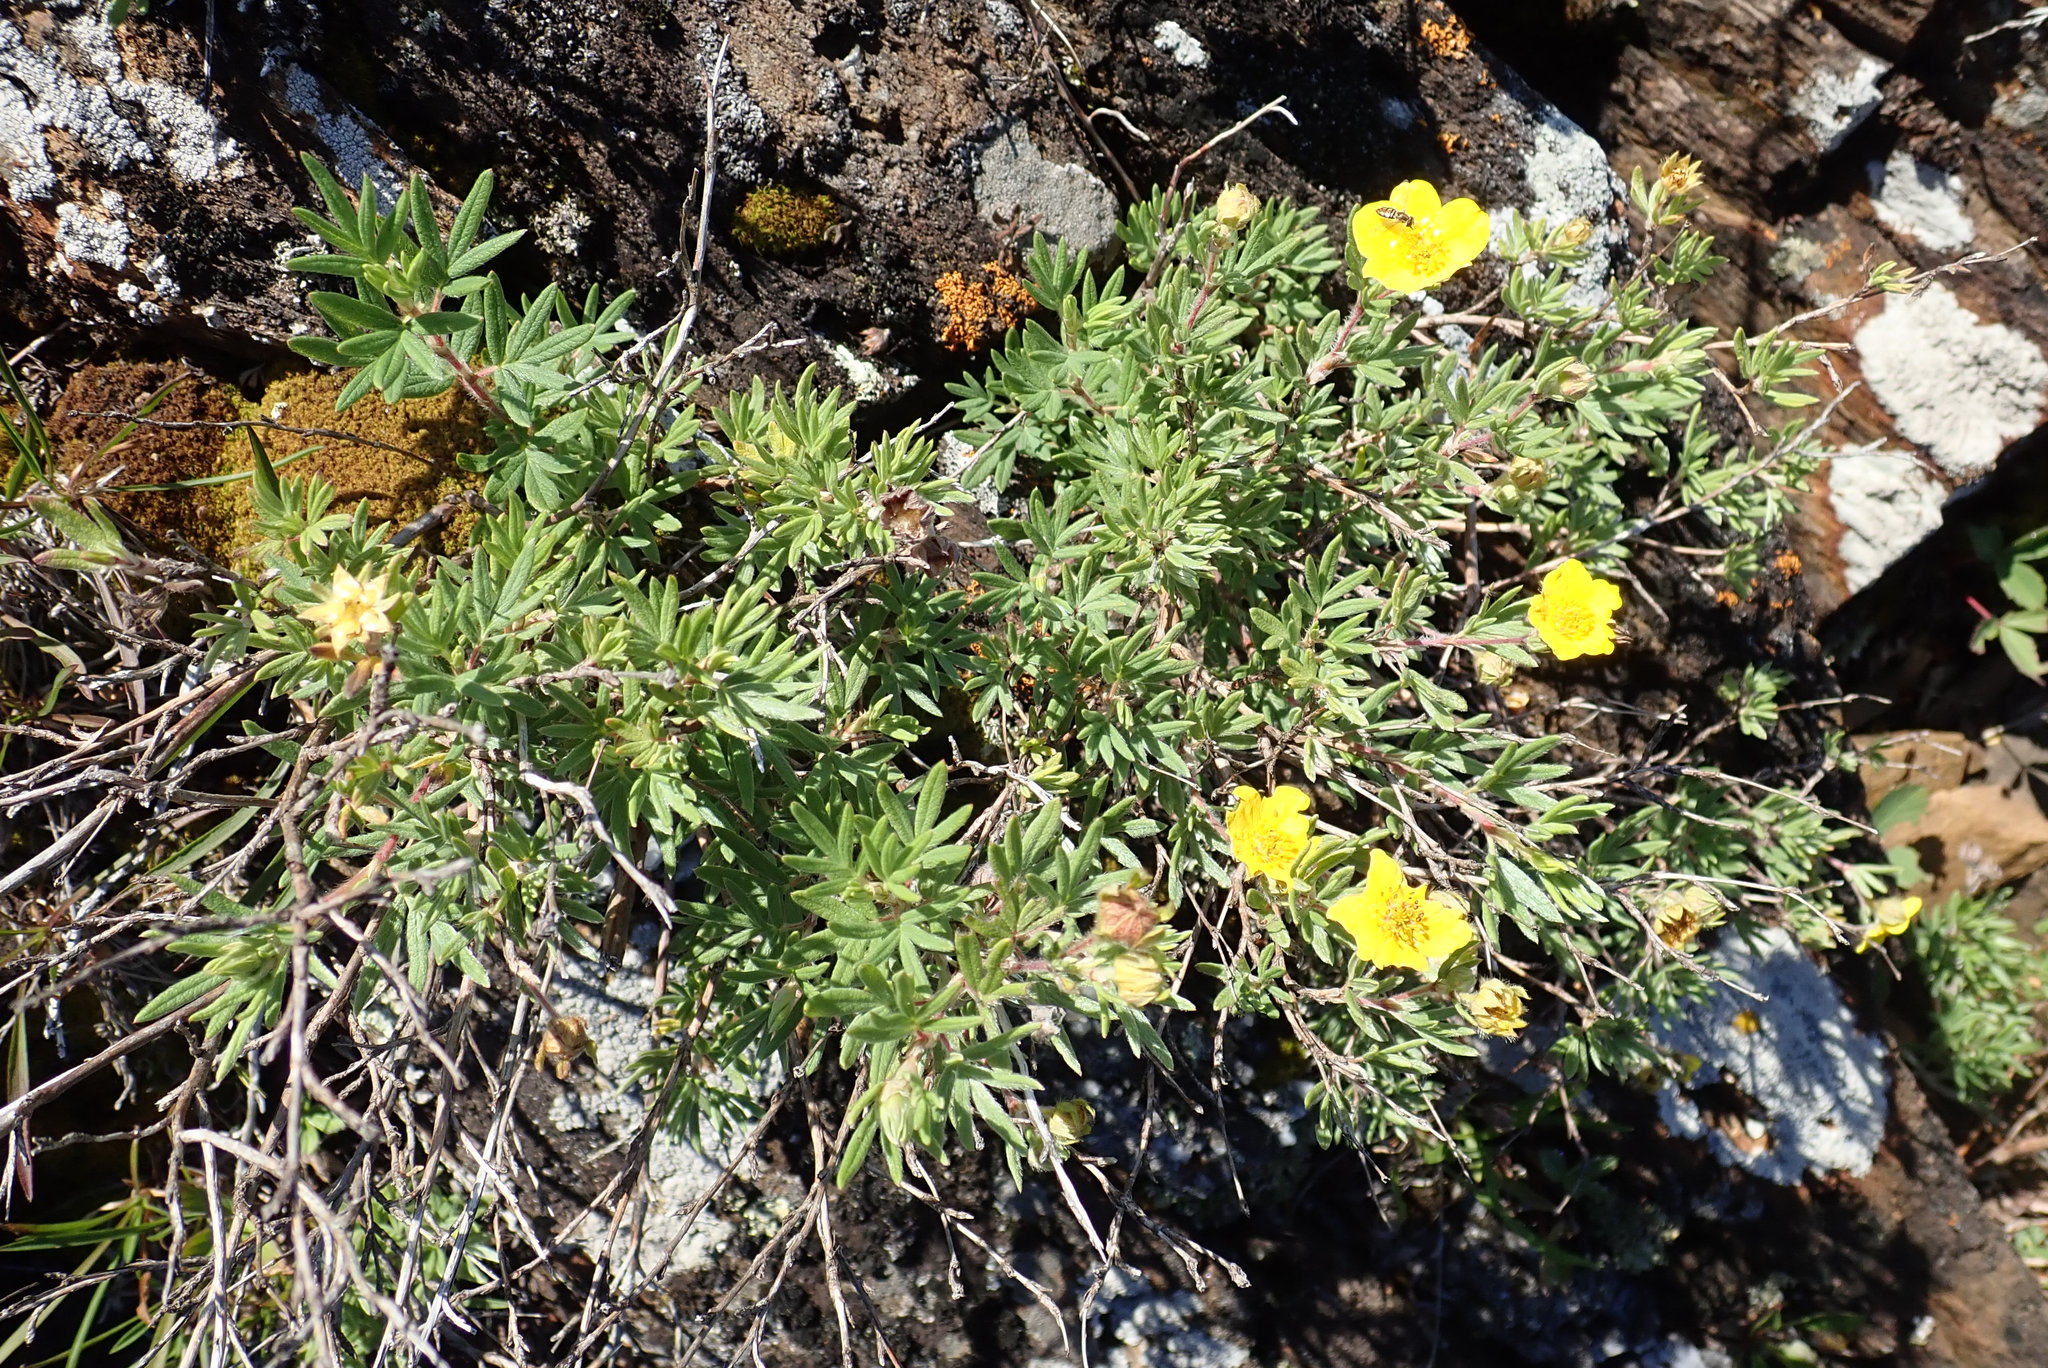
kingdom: Plantae
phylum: Tracheophyta
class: Magnoliopsida
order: Rosales
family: Rosaceae
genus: Dasiphora
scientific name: Dasiphora fruticosa
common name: Shrubby cinquefoil
